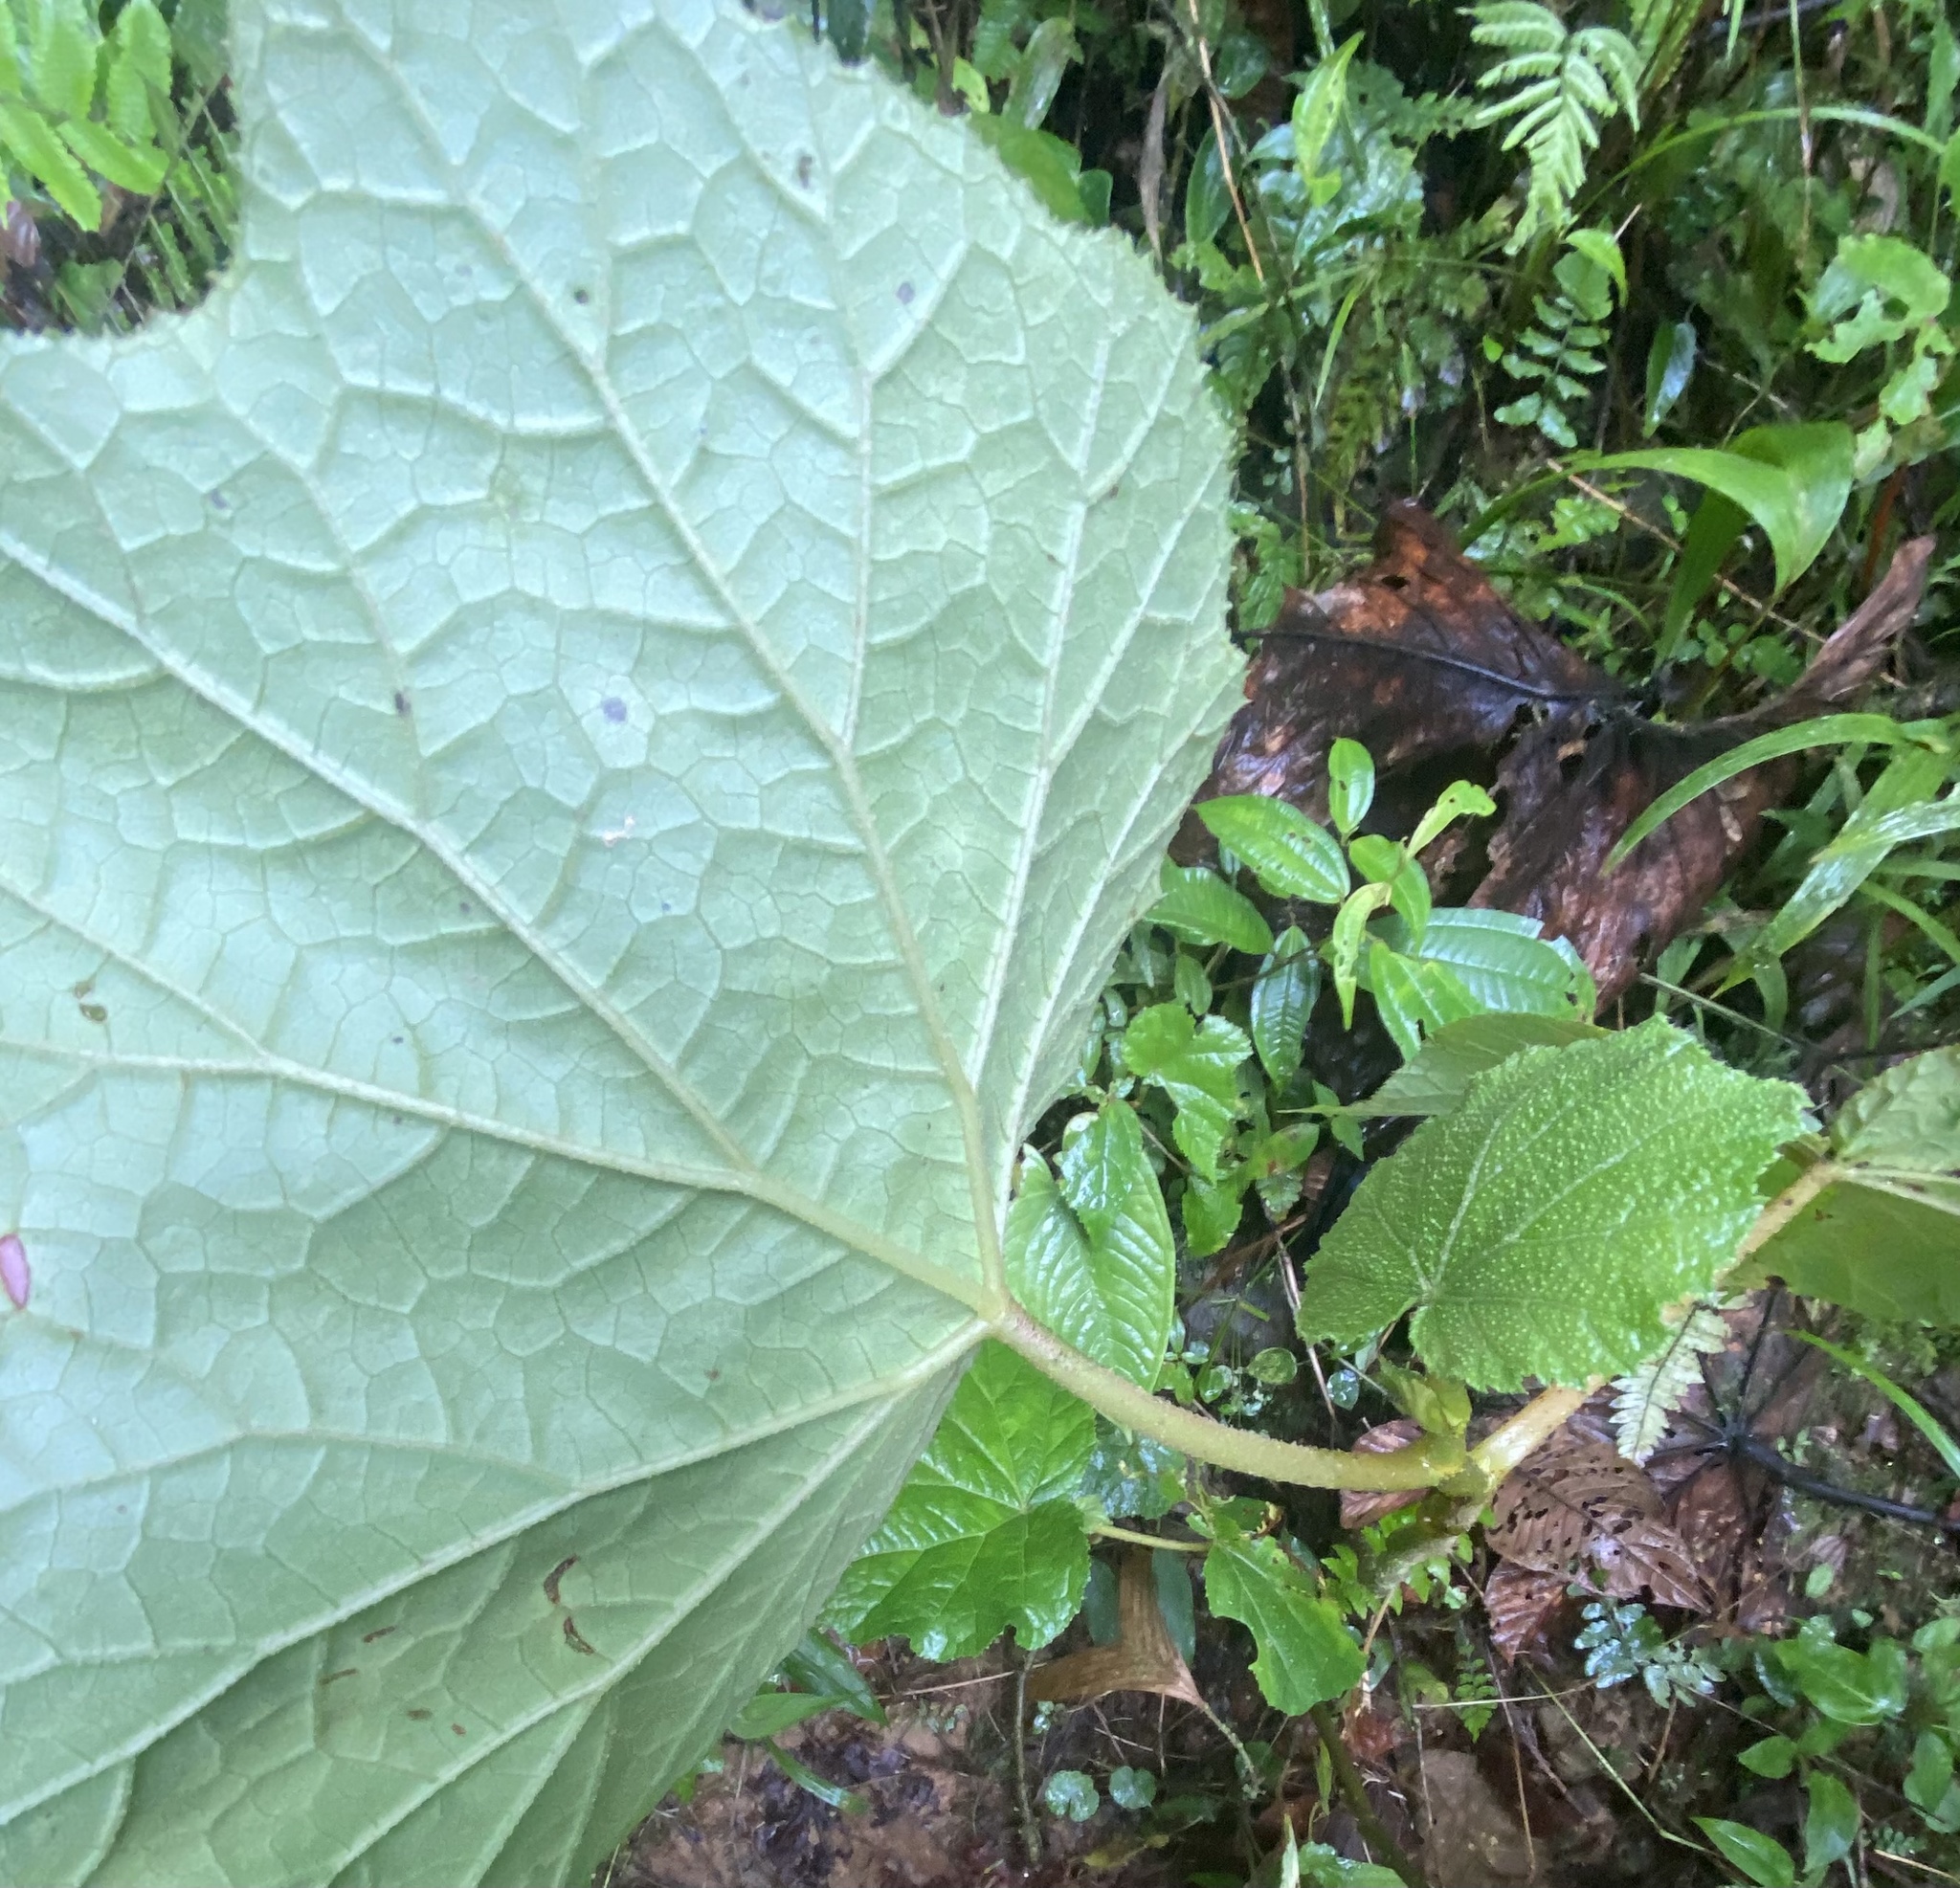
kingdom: Plantae
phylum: Tracheophyta
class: Magnoliopsida
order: Cucurbitales
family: Begoniaceae
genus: Begonia
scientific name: Begonia parviflora
